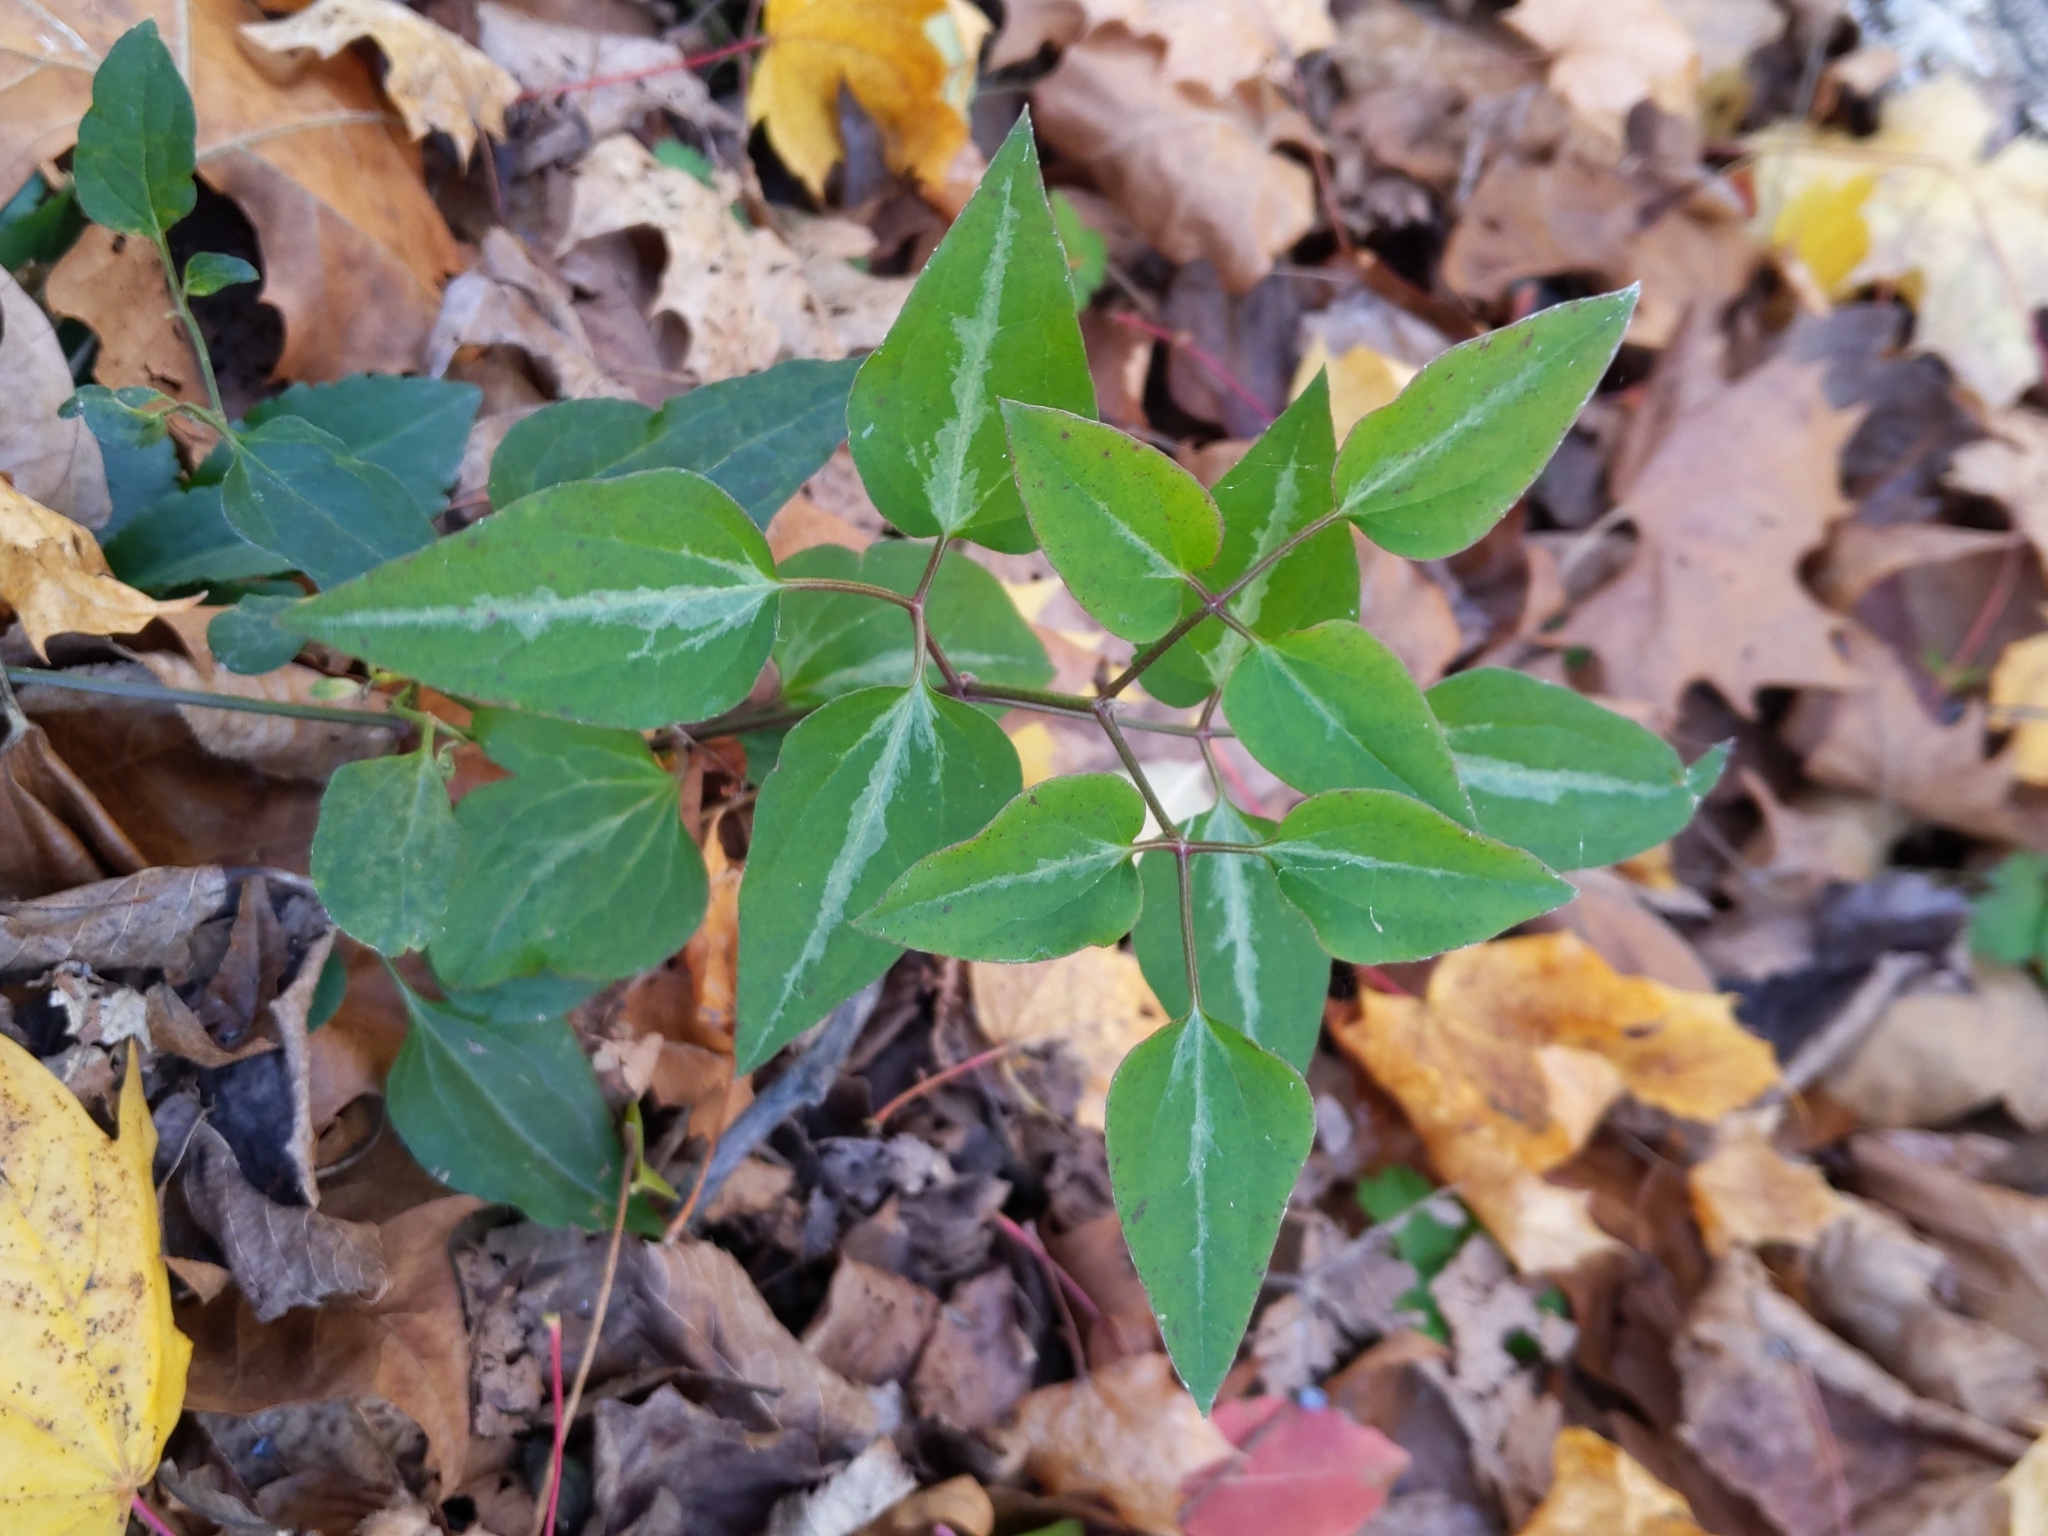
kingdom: Plantae
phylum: Tracheophyta
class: Magnoliopsida
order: Ranunculales
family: Ranunculaceae
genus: Clematis
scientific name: Clematis terniflora
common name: Sweet autumn clematis
